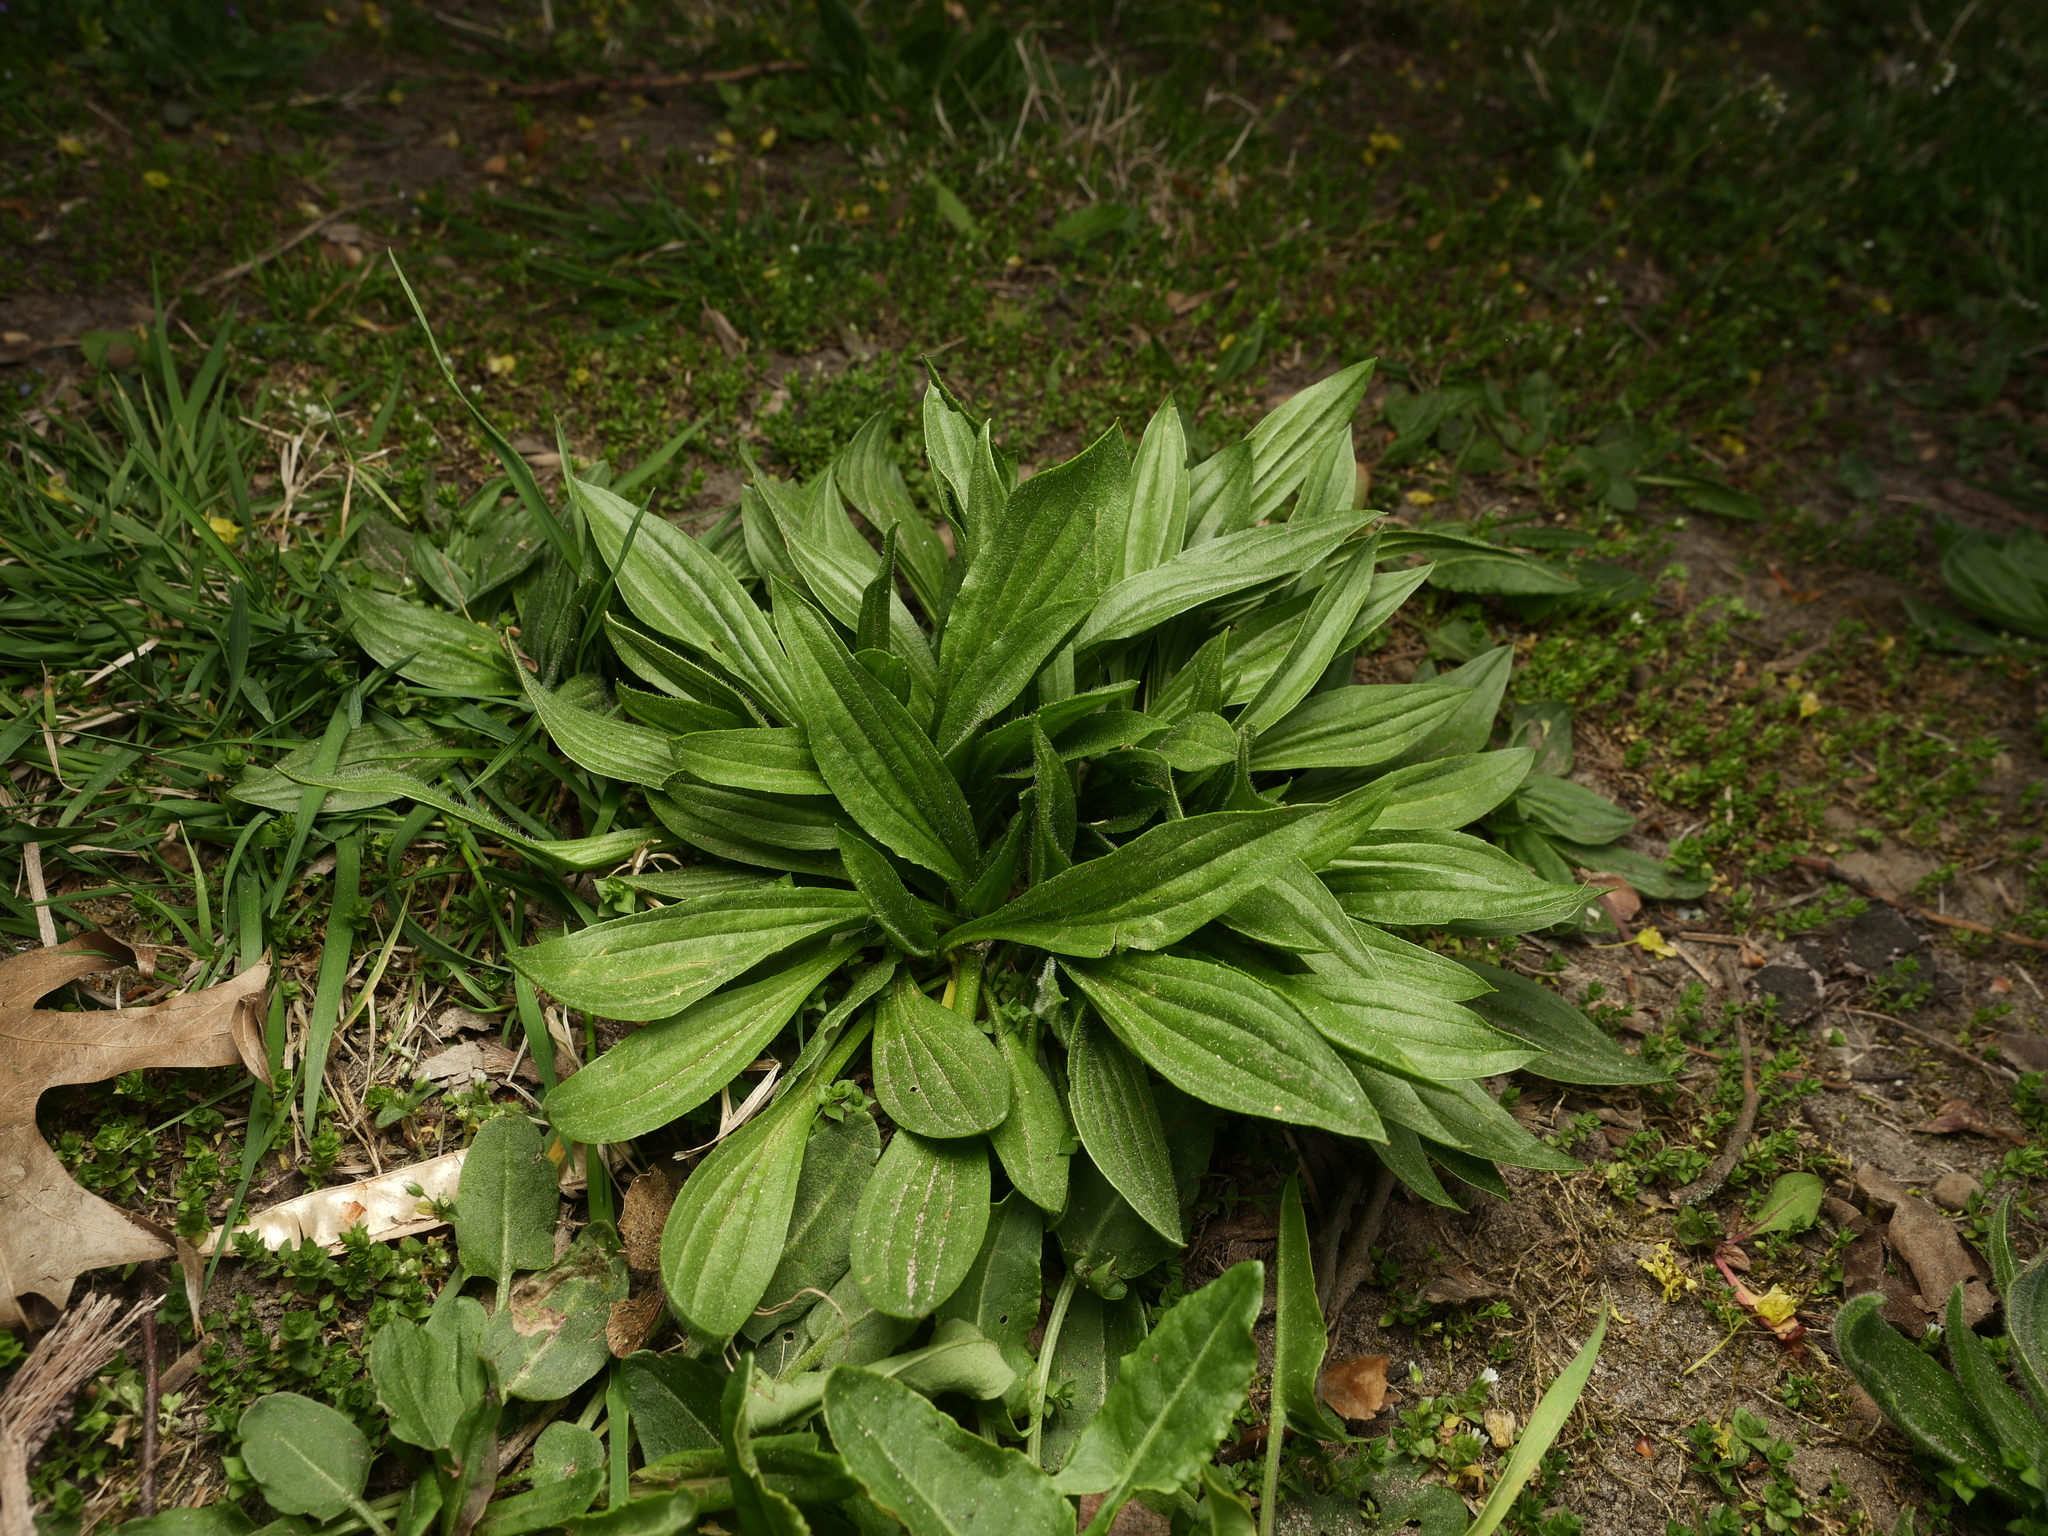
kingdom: Plantae
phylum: Tracheophyta
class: Magnoliopsida
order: Lamiales
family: Plantaginaceae
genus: Plantago
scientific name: Plantago lanceolata
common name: Ribwort plantain
